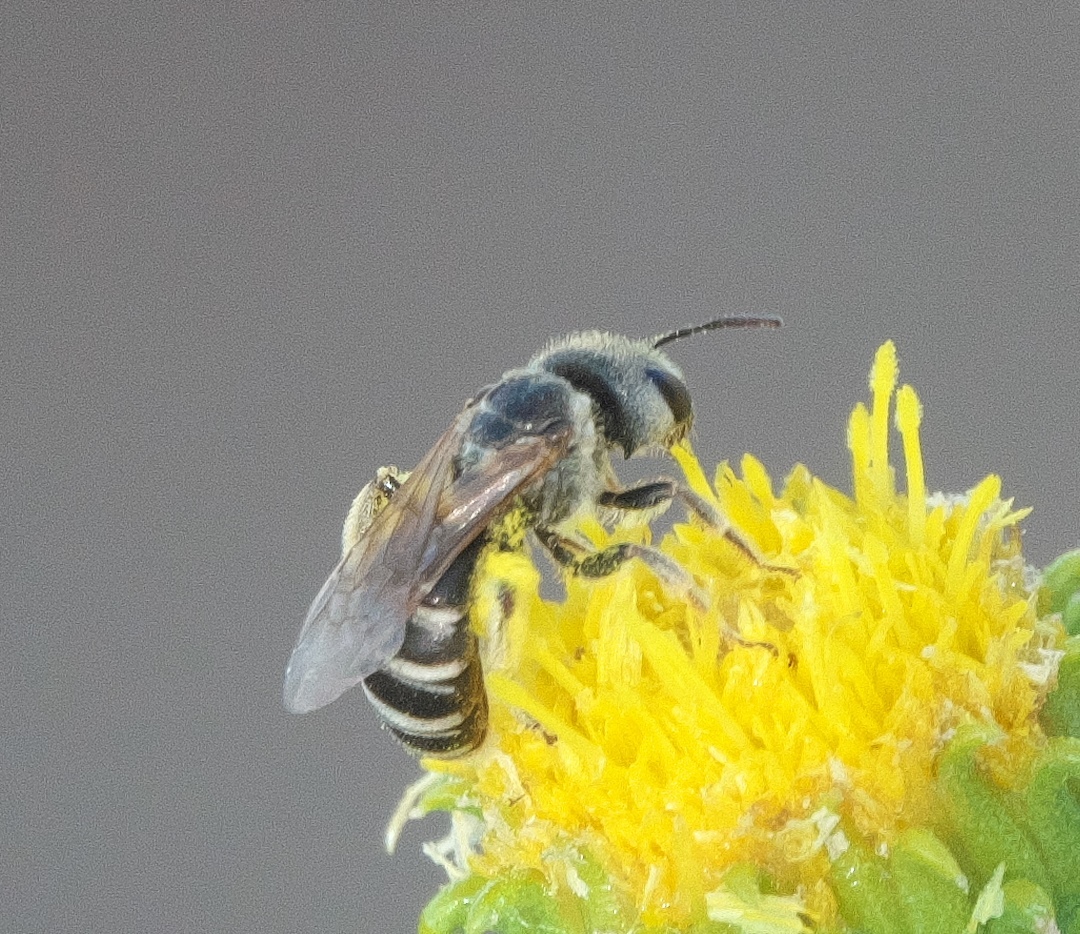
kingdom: Animalia
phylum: Arthropoda
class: Insecta
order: Hymenoptera
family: Halictidae
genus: Halictus
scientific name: Halictus ligatus
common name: Ligated furrow bee
